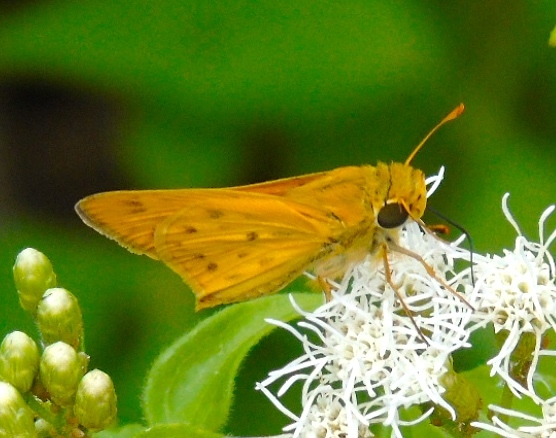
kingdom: Animalia
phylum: Arthropoda
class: Insecta
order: Lepidoptera
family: Hesperiidae
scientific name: Hesperiidae
